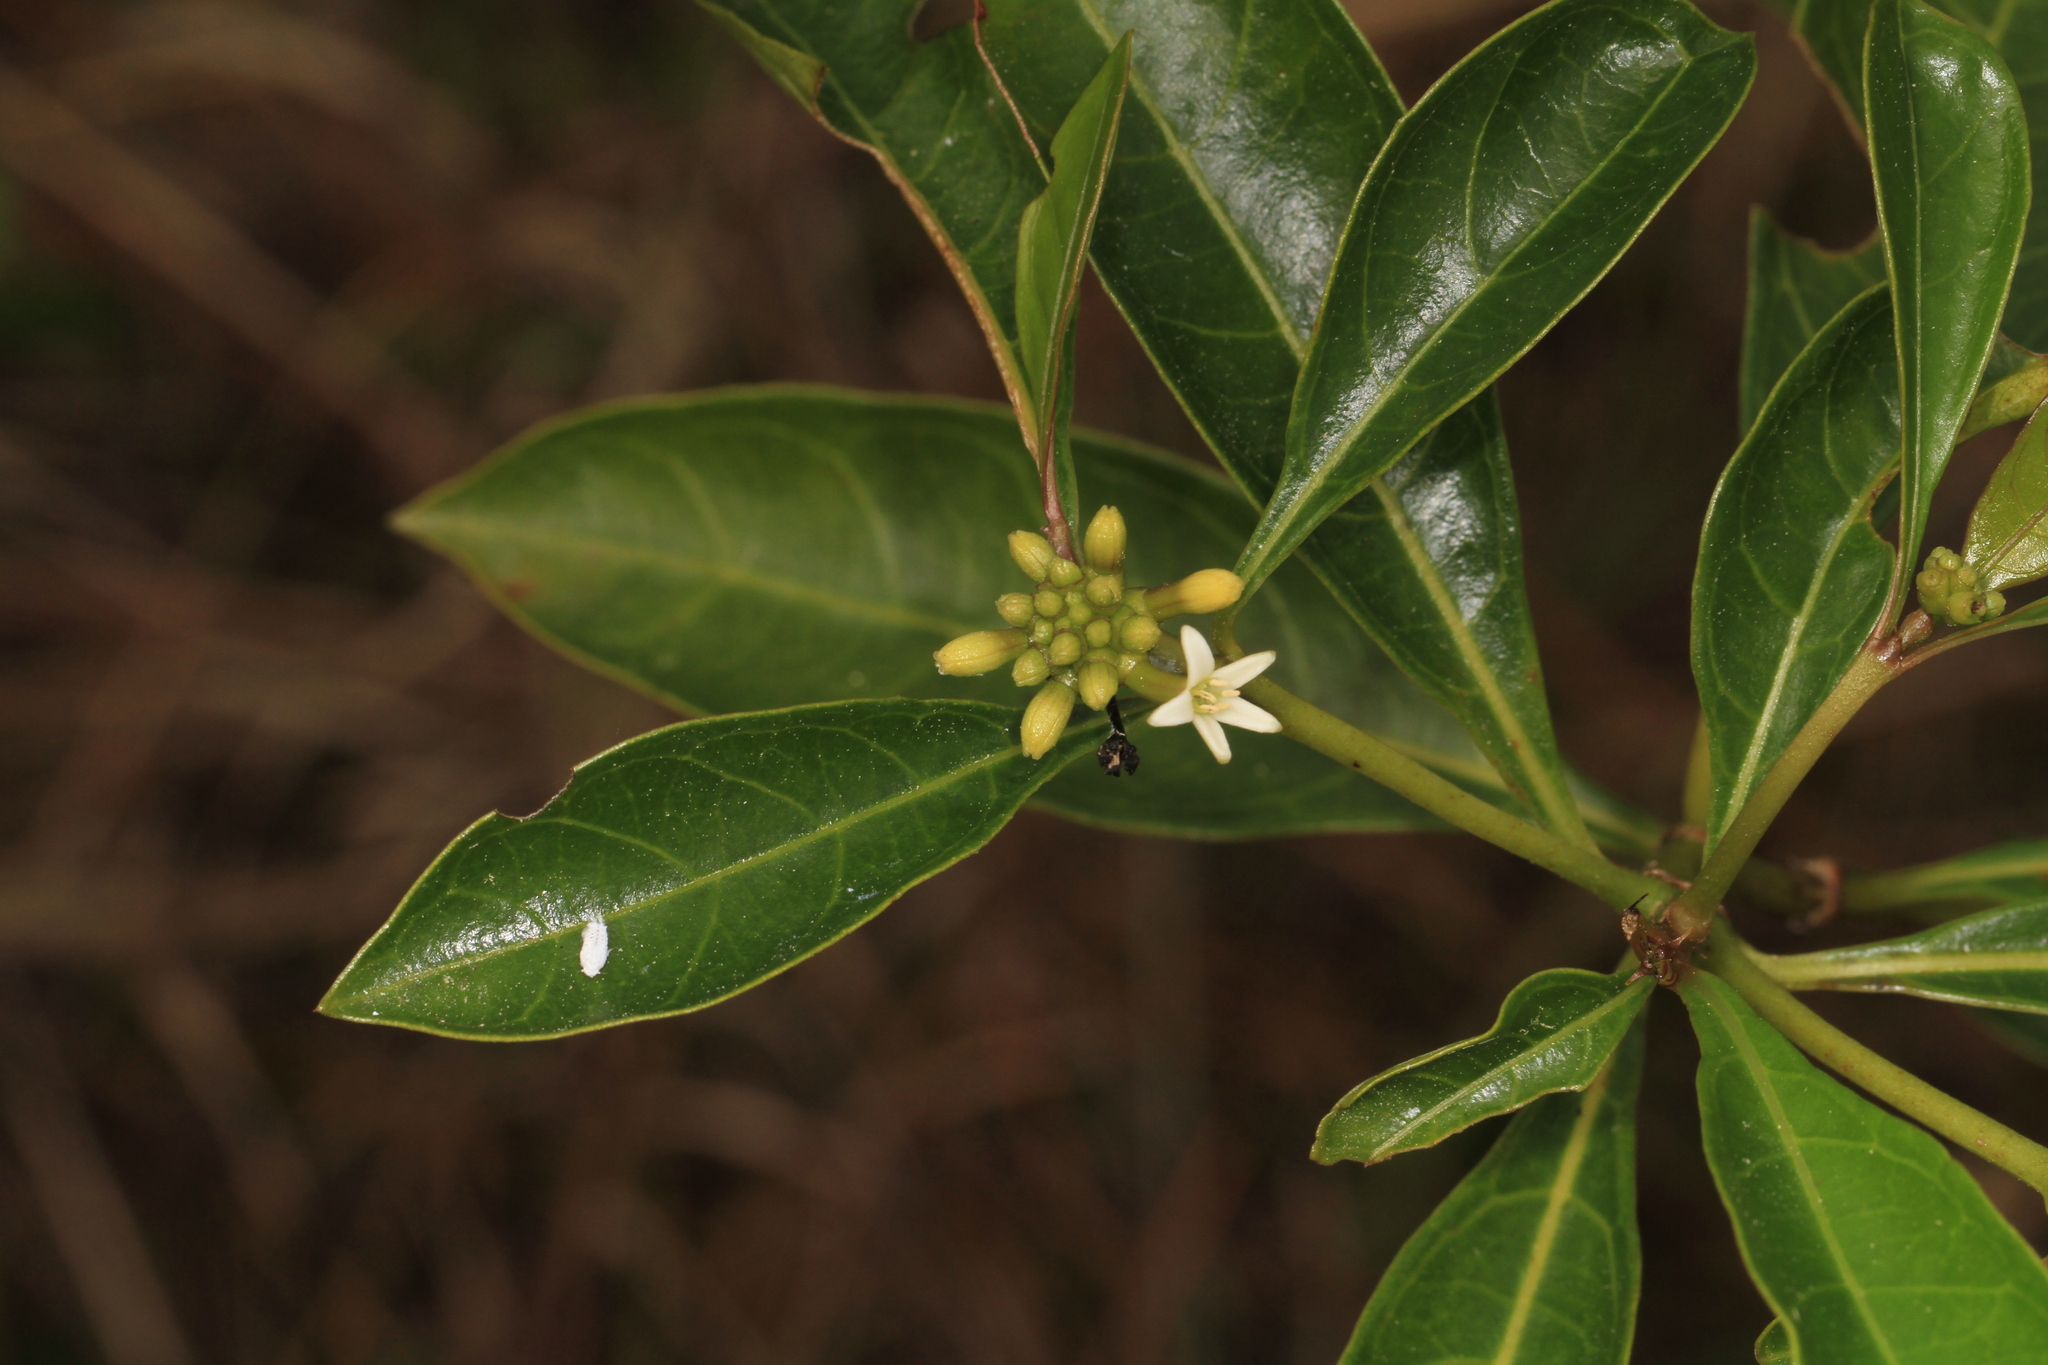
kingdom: Plantae
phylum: Tracheophyta
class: Magnoliopsida
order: Gentianales
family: Rubiaceae
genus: Morinda
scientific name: Morinda royoc
